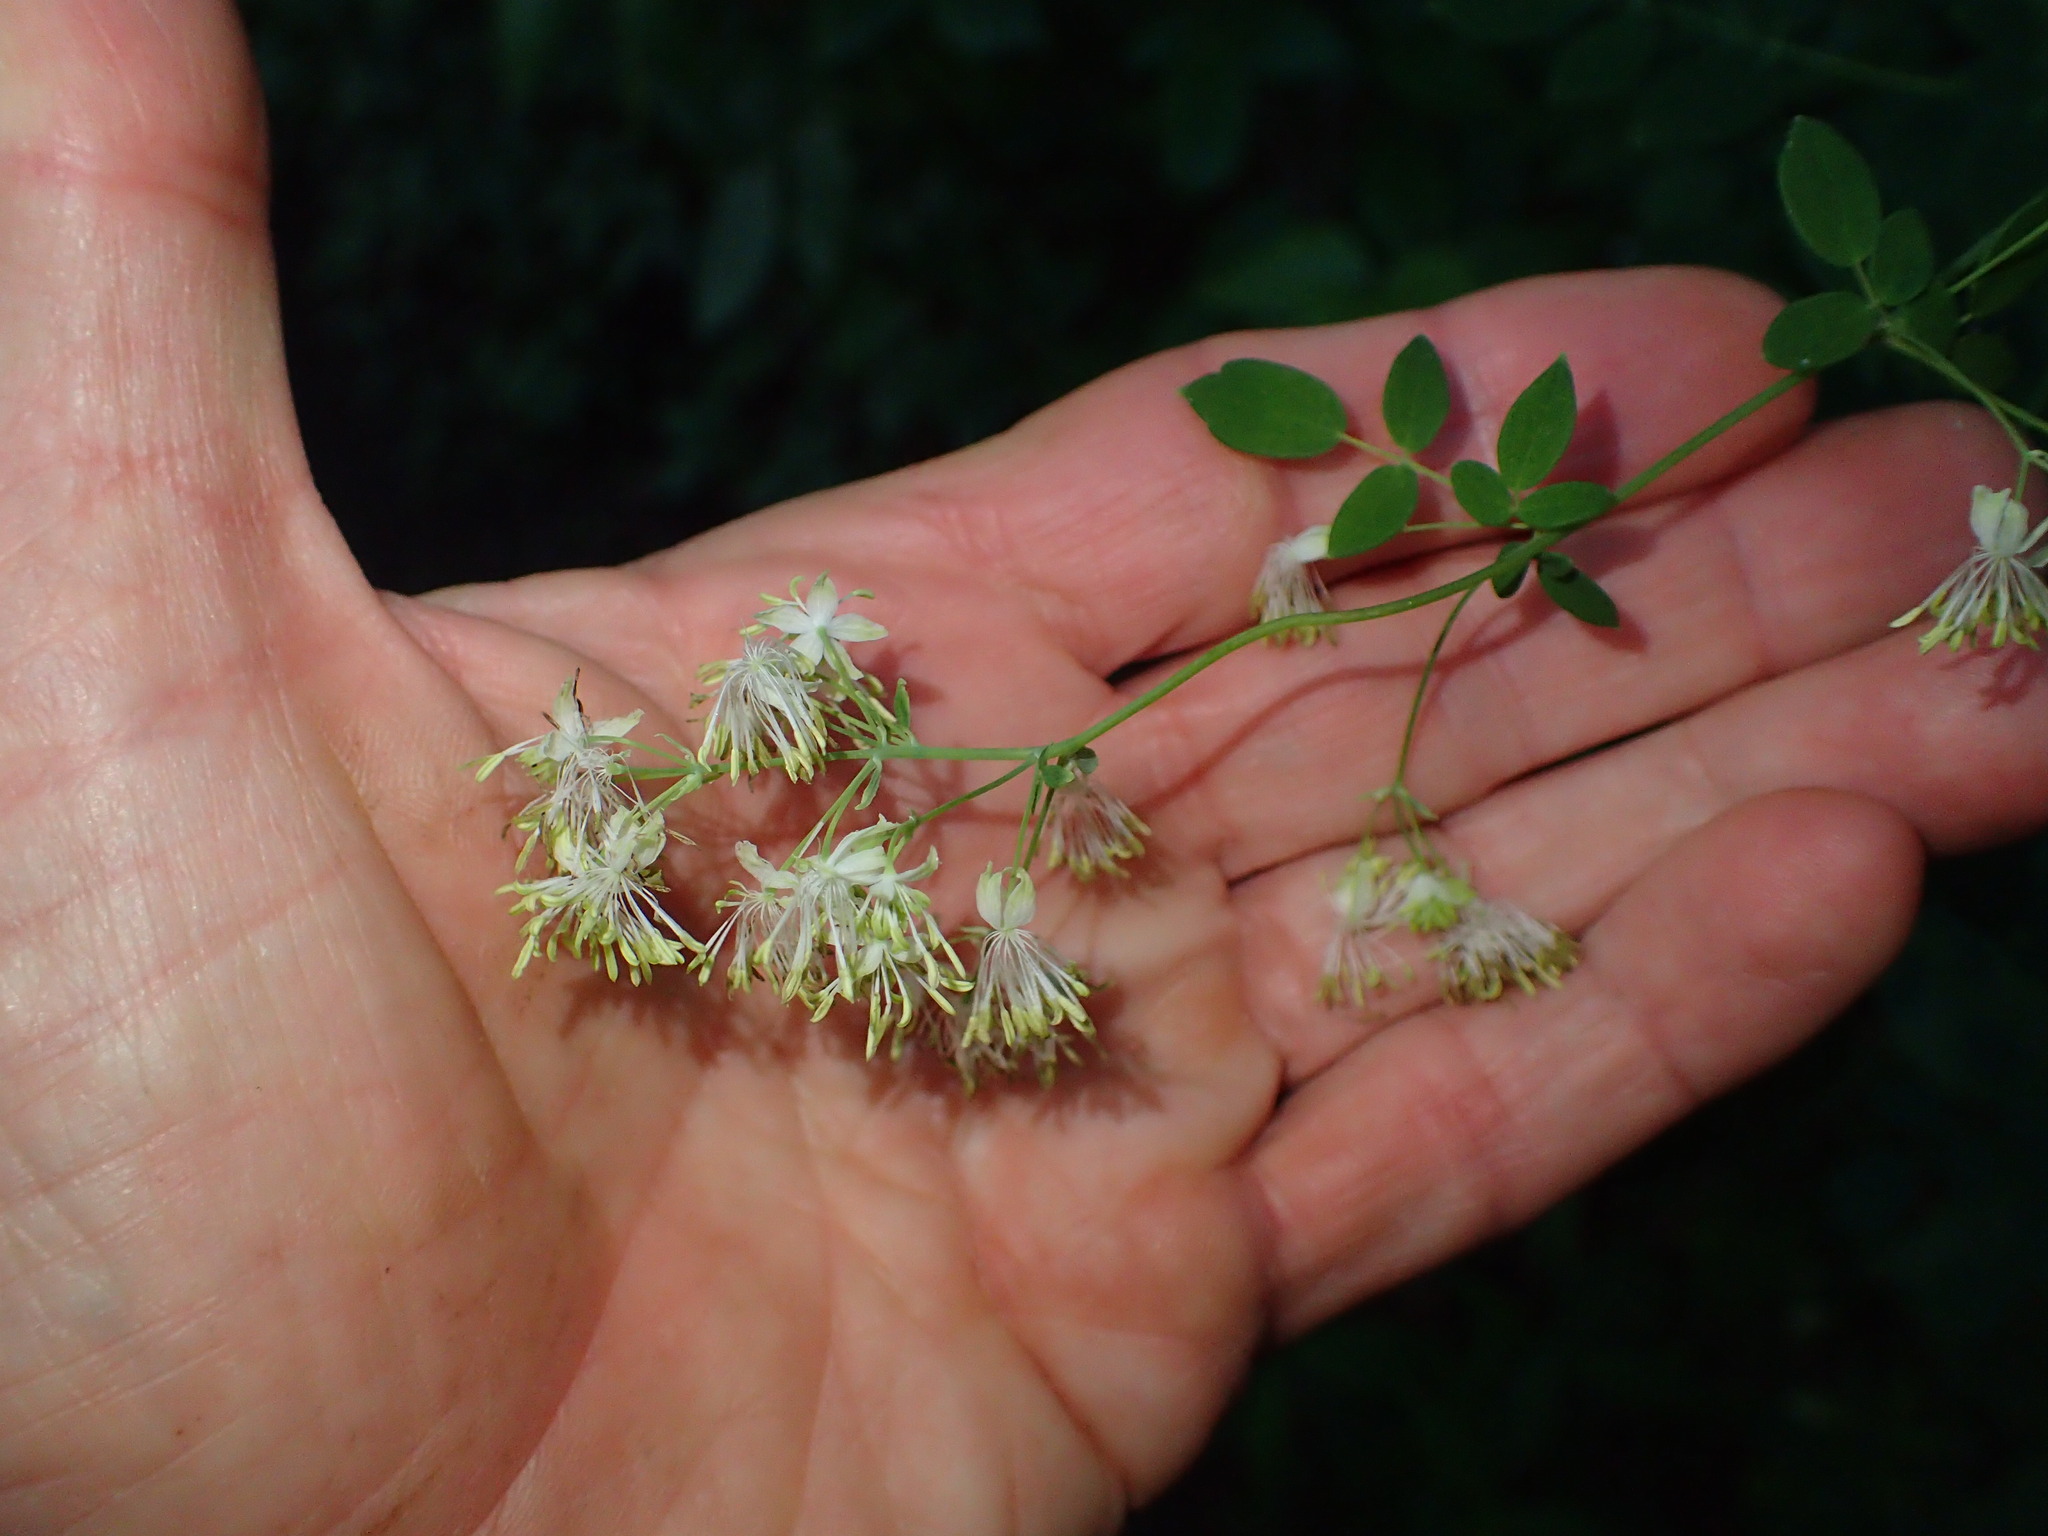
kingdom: Plantae
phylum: Tracheophyta
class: Magnoliopsida
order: Ranunculales
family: Ranunculaceae
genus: Thalictrum
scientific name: Thalictrum revolutum
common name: Waxy meadow-rue
